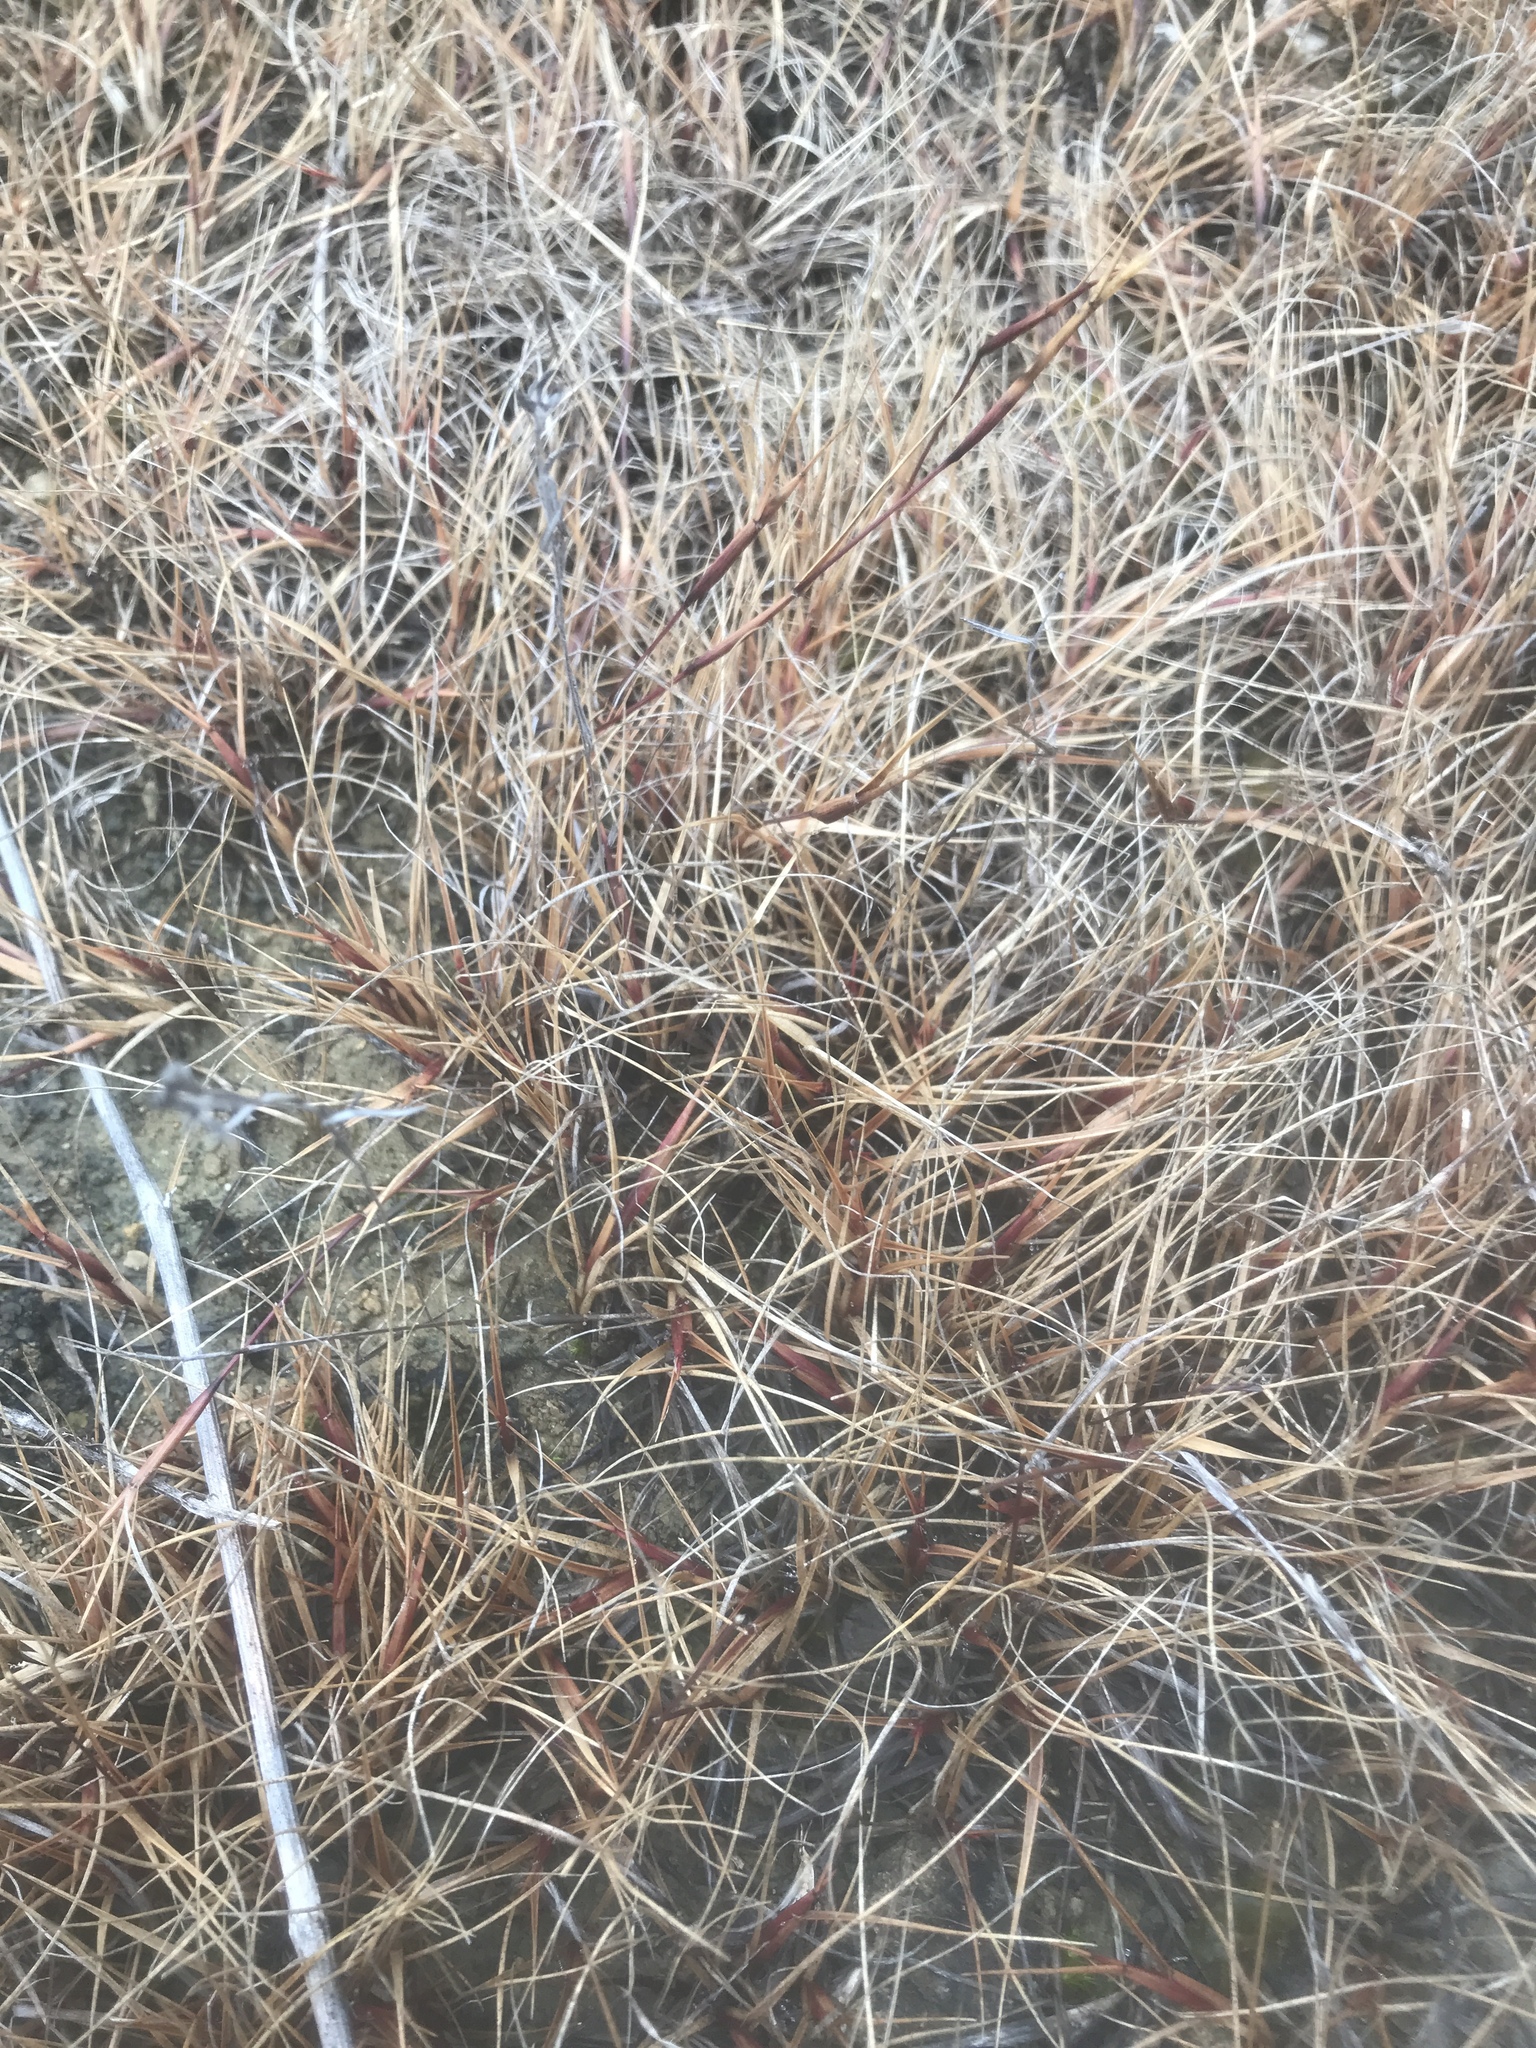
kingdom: Plantae
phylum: Tracheophyta
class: Liliopsida
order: Poales
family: Poaceae
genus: Sporobolus
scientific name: Sporobolus neglectus
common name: Annual dropseed
